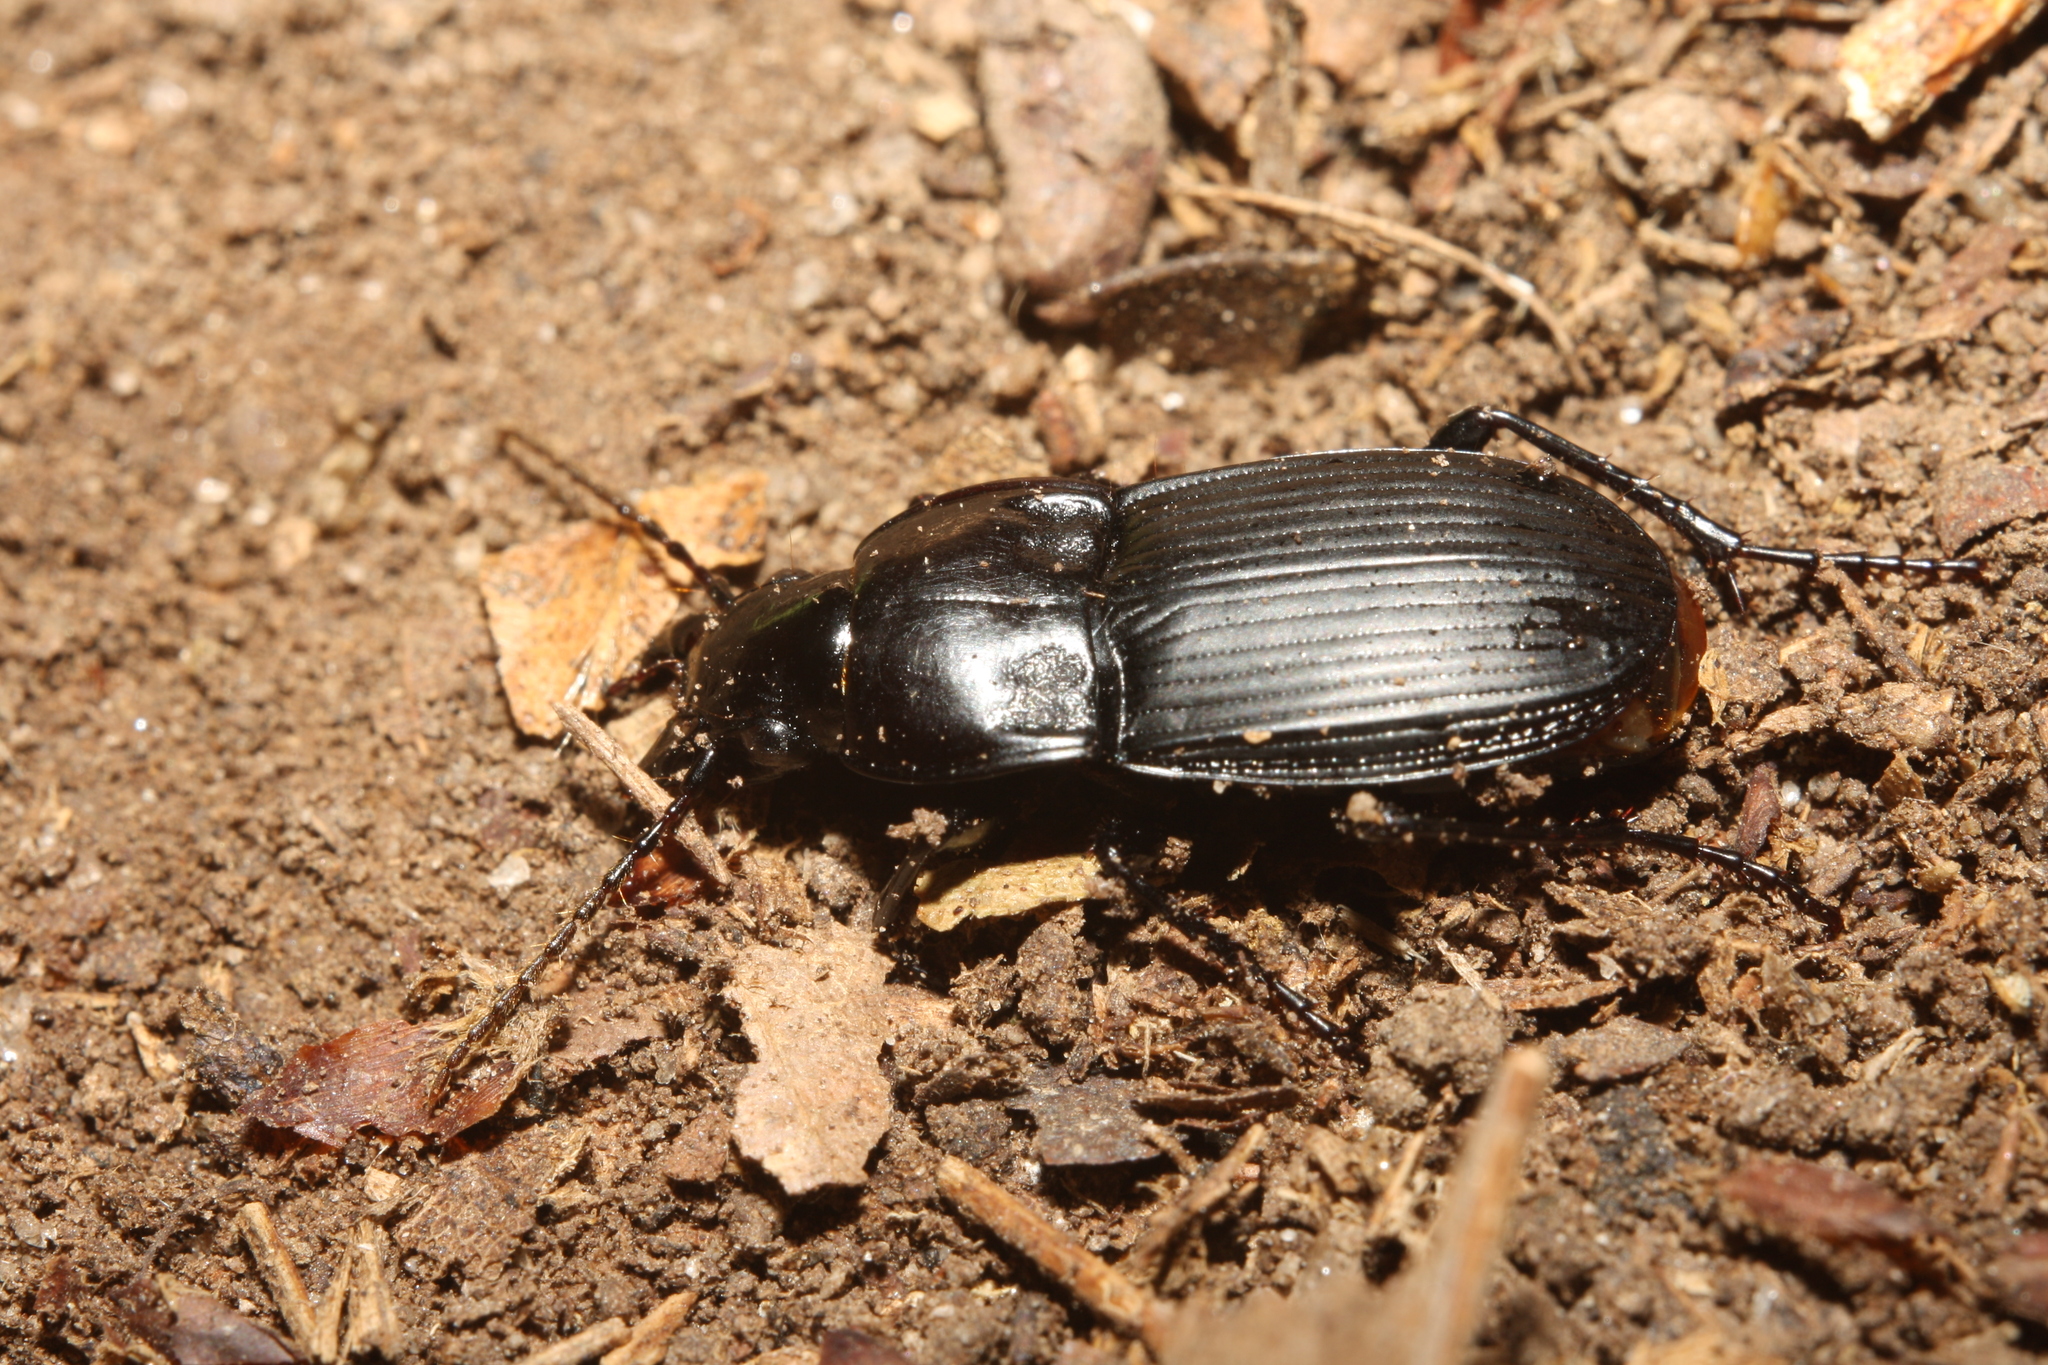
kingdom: Animalia
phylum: Arthropoda
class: Insecta
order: Coleoptera
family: Carabidae
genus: Abax
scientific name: Abax carinatus
